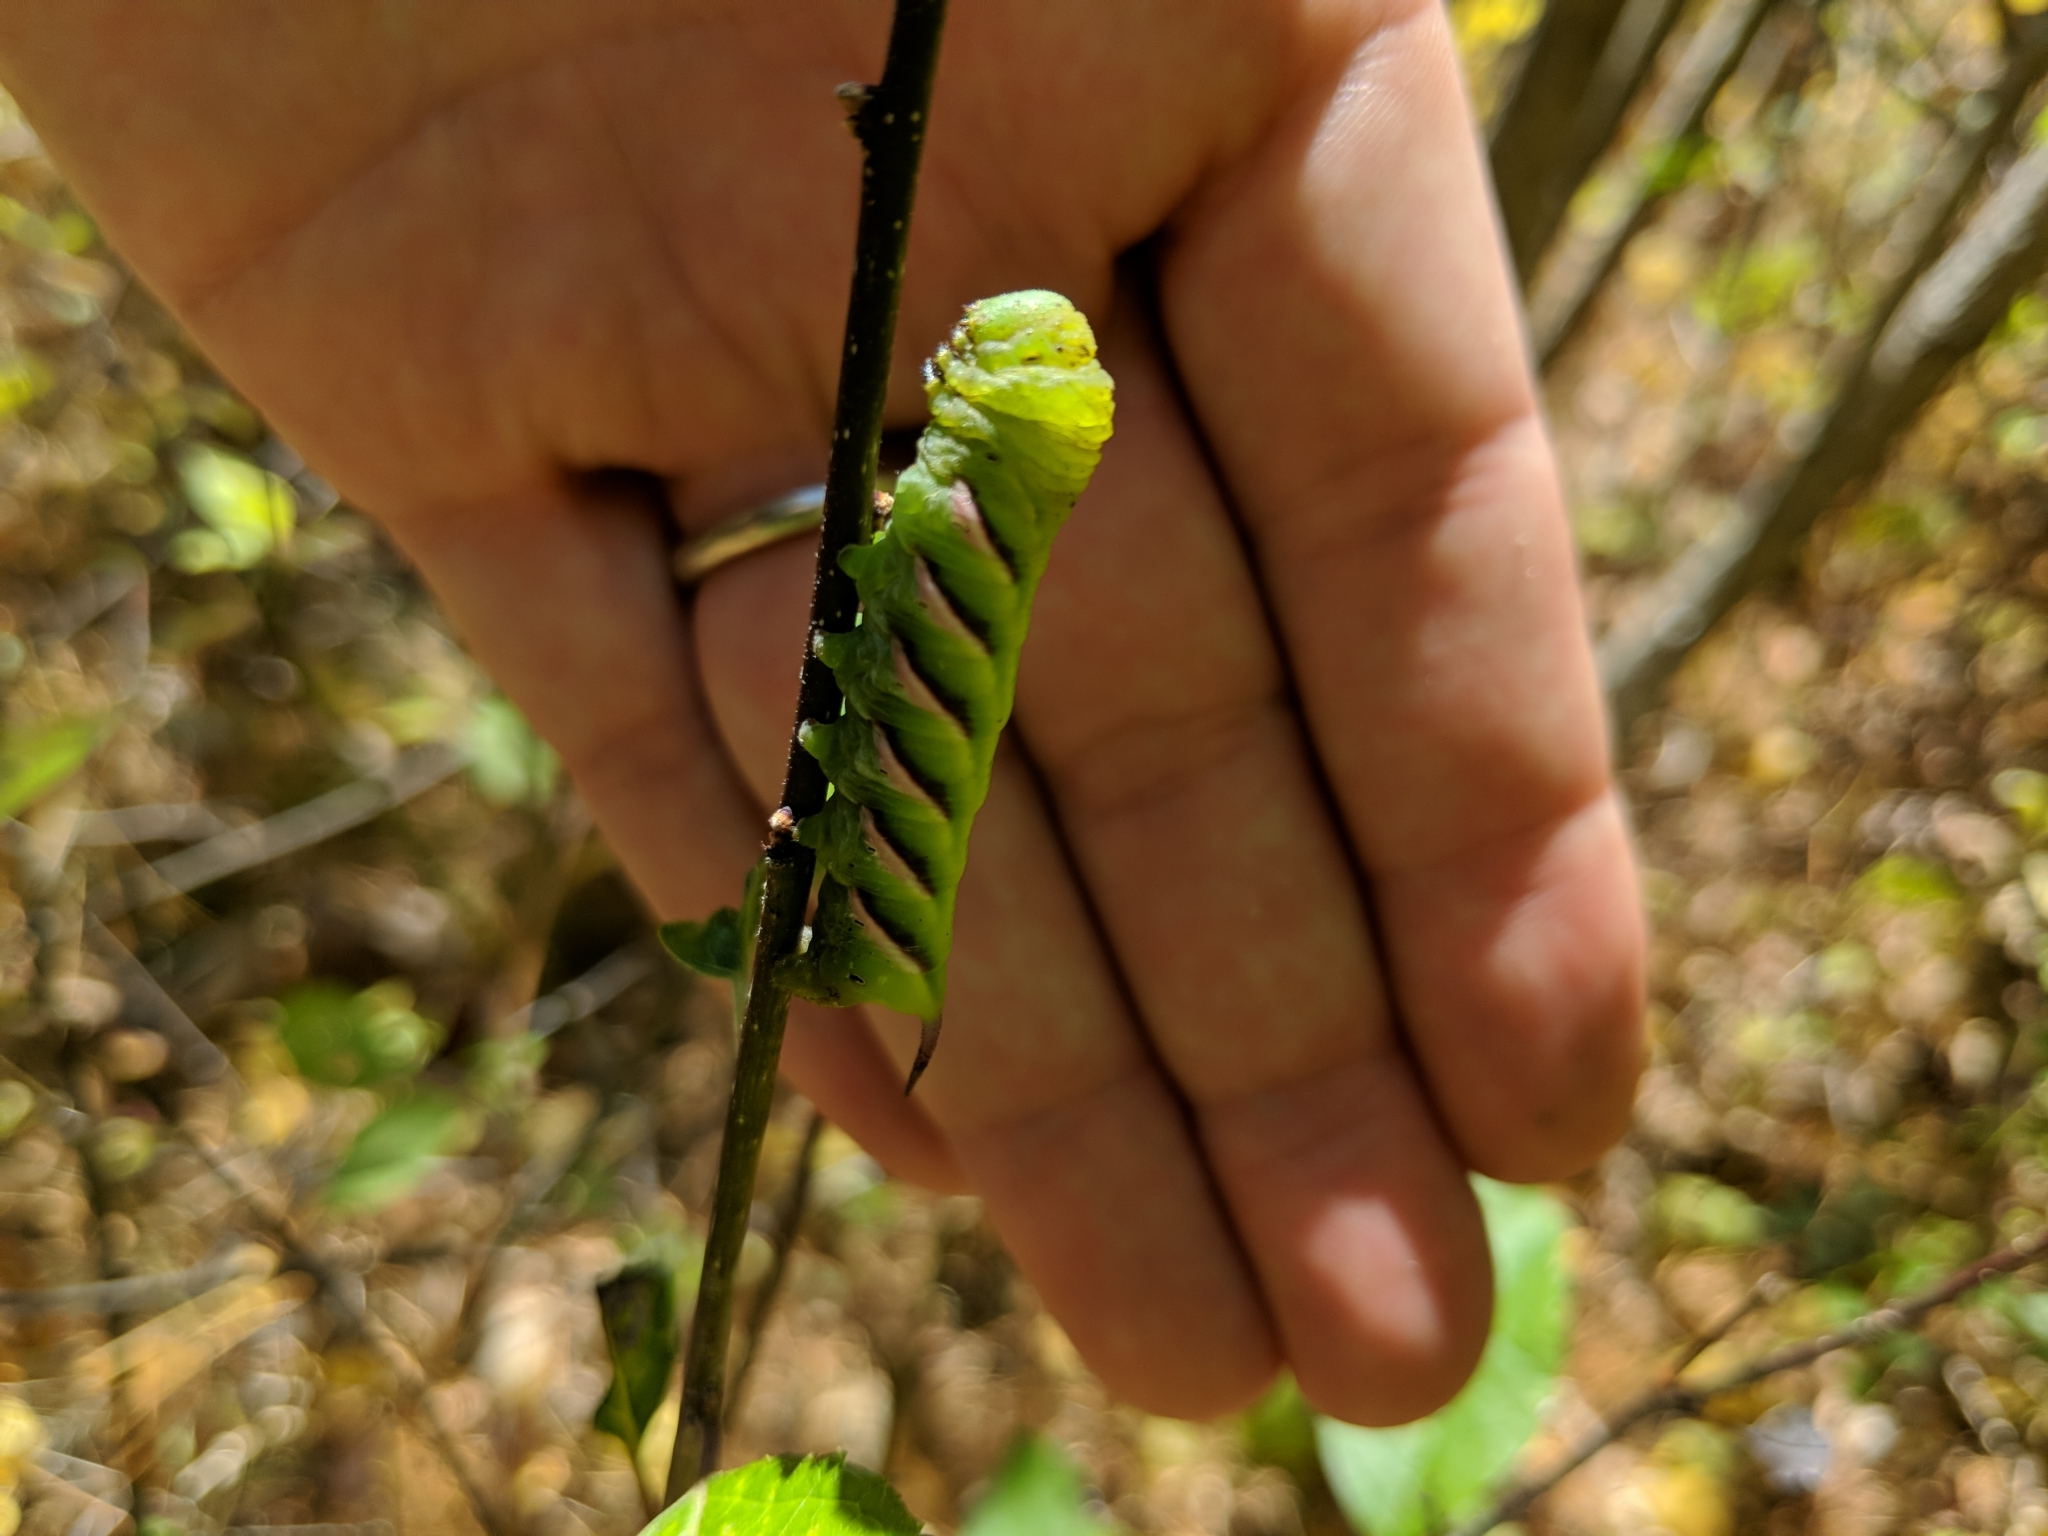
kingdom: Animalia
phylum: Arthropoda
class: Insecta
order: Lepidoptera
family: Sphingidae
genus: Dolba
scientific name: Dolba hyloeus
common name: Pawpaw sphinx
